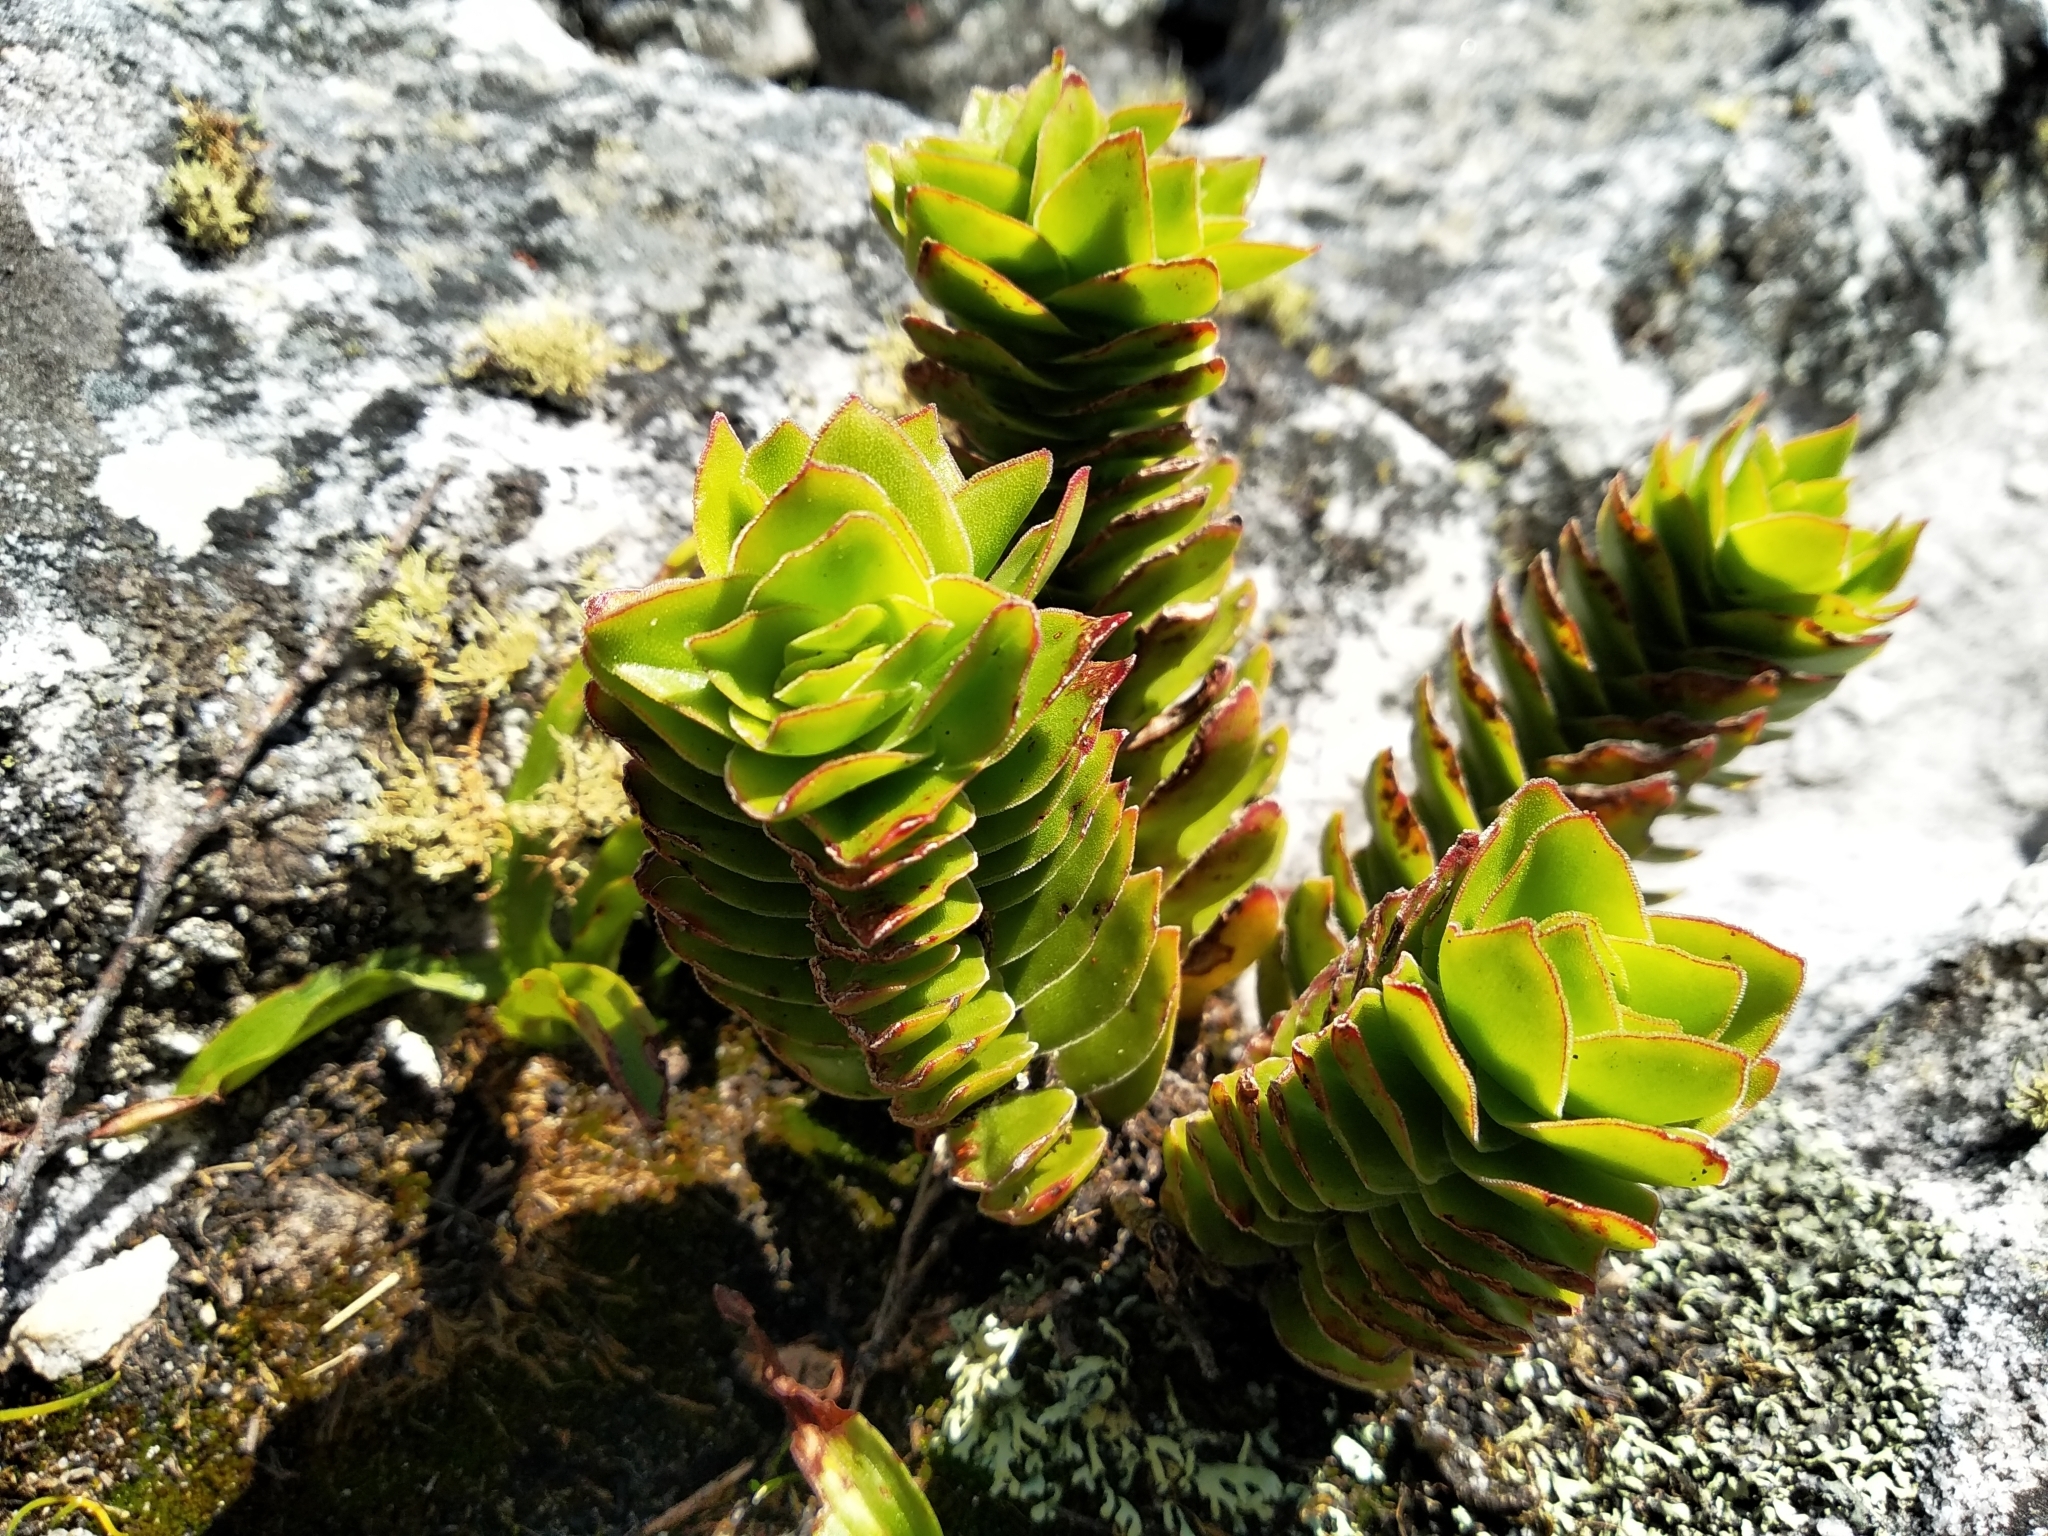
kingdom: Plantae
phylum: Tracheophyta
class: Magnoliopsida
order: Saxifragales
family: Crassulaceae
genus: Crassula
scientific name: Crassula coccinea
